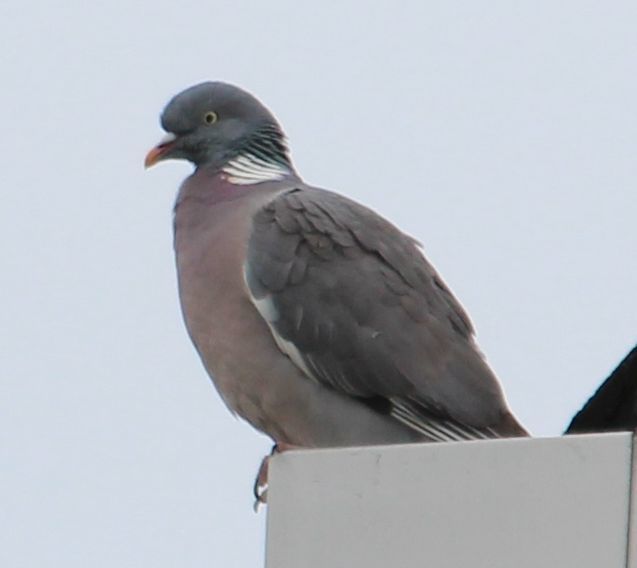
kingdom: Animalia
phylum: Chordata
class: Aves
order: Columbiformes
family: Columbidae
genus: Columba
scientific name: Columba palumbus
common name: Common wood pigeon
